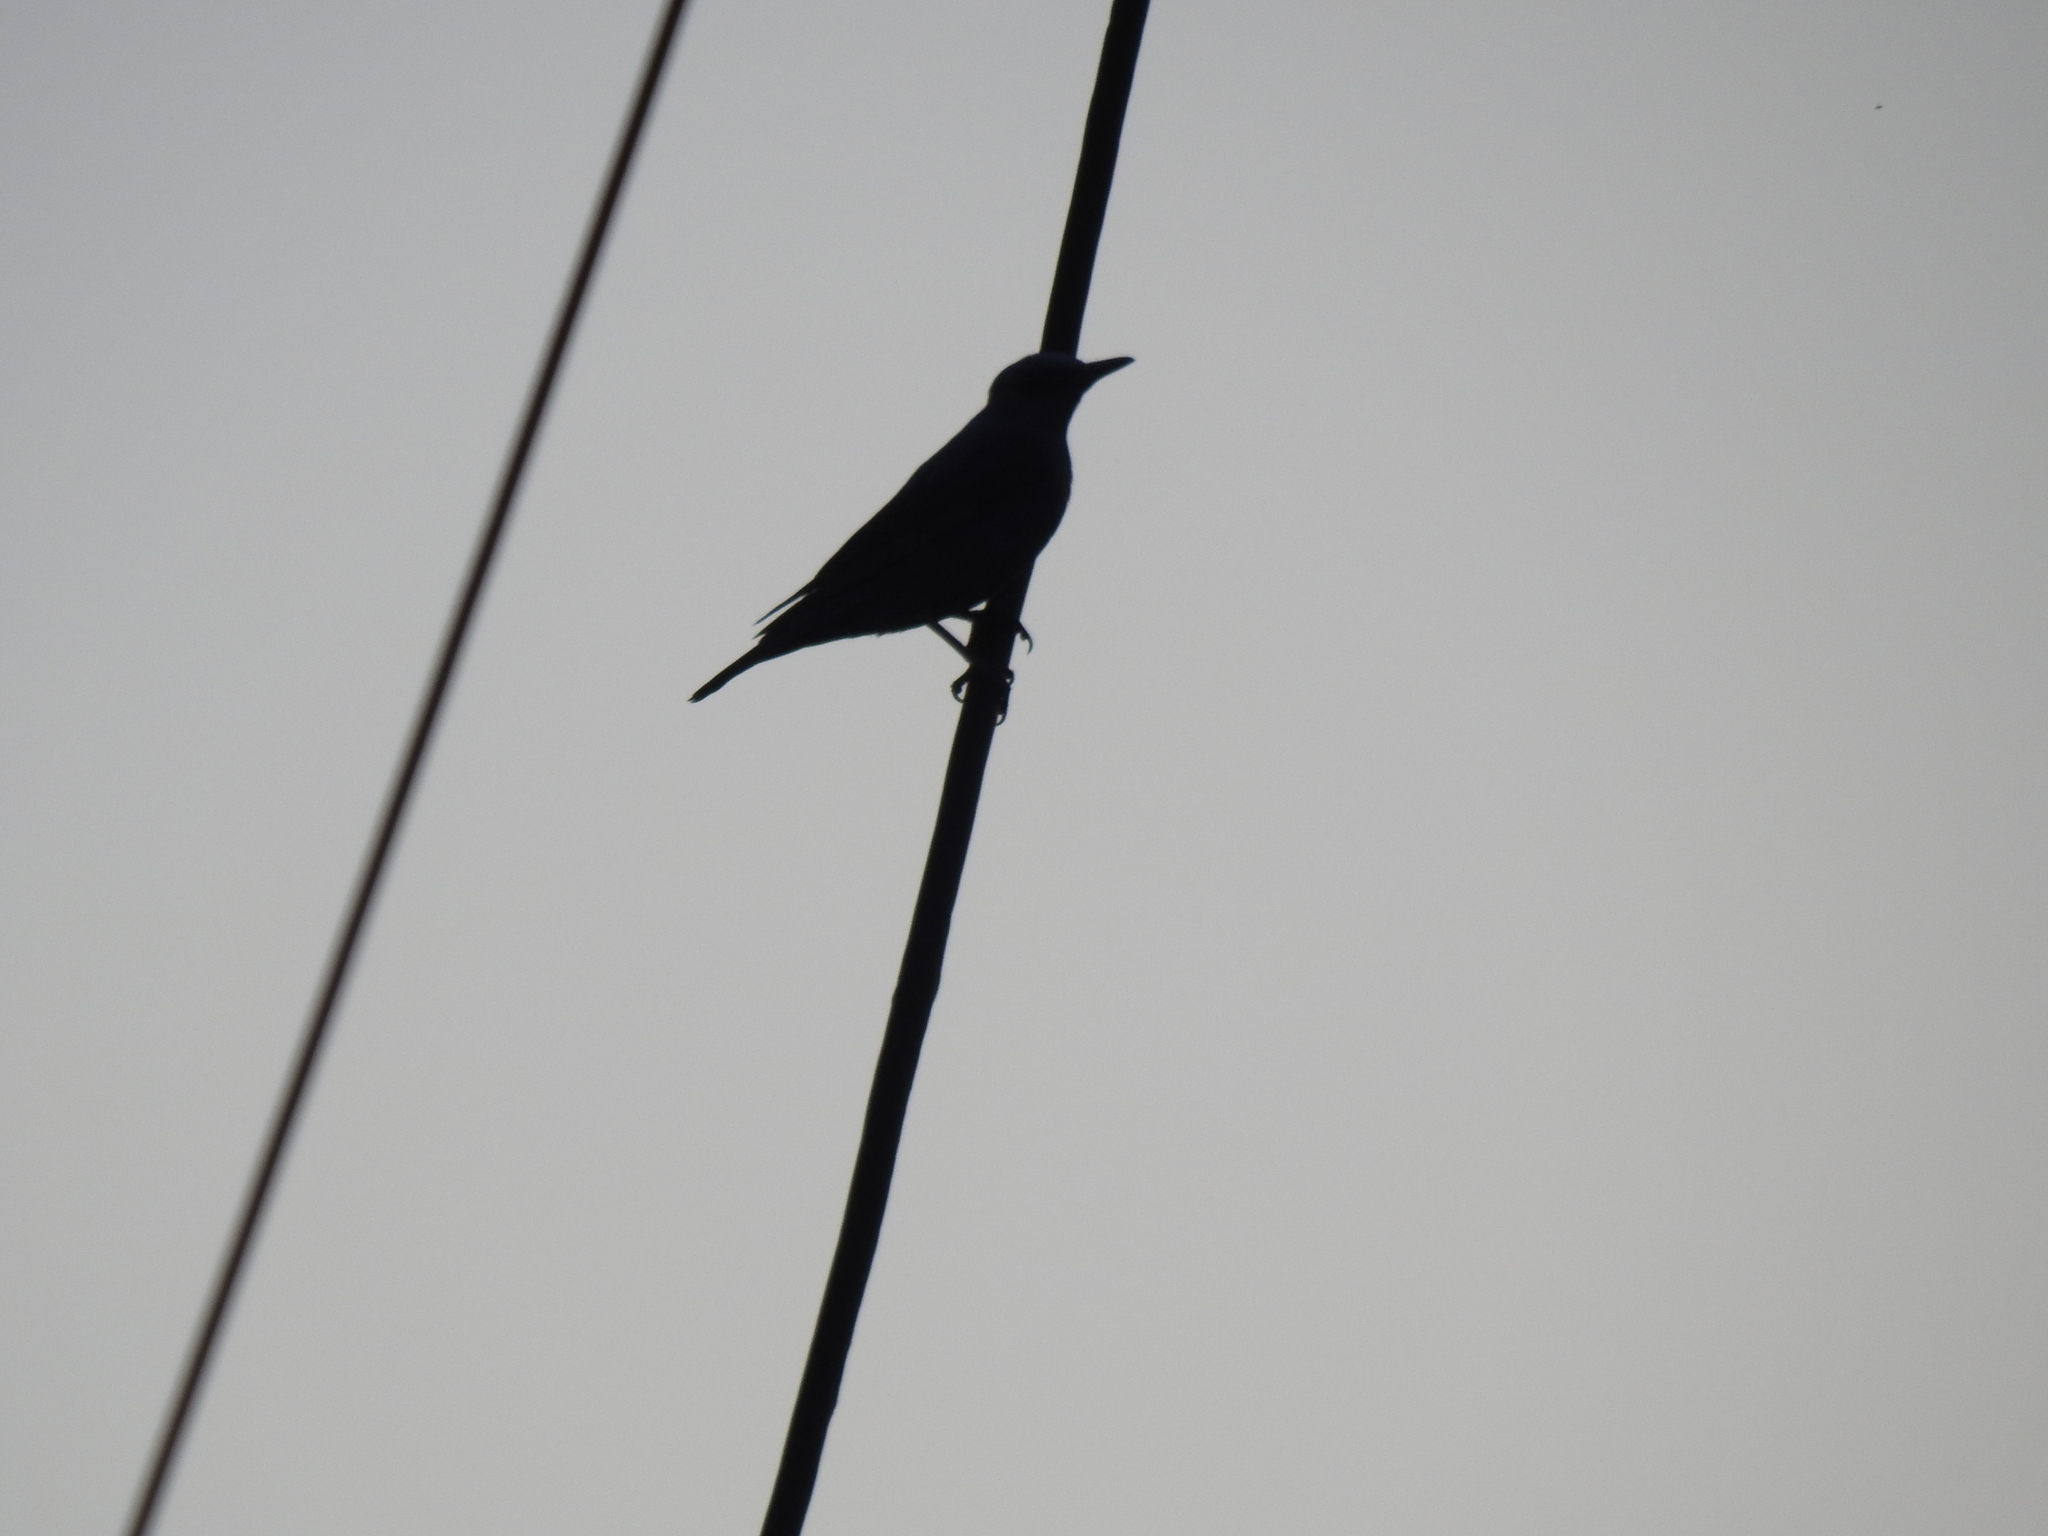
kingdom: Animalia
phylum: Chordata
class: Aves
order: Passeriformes
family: Muscicapidae
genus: Monticola
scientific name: Monticola solitarius
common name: Blue rock thrush
